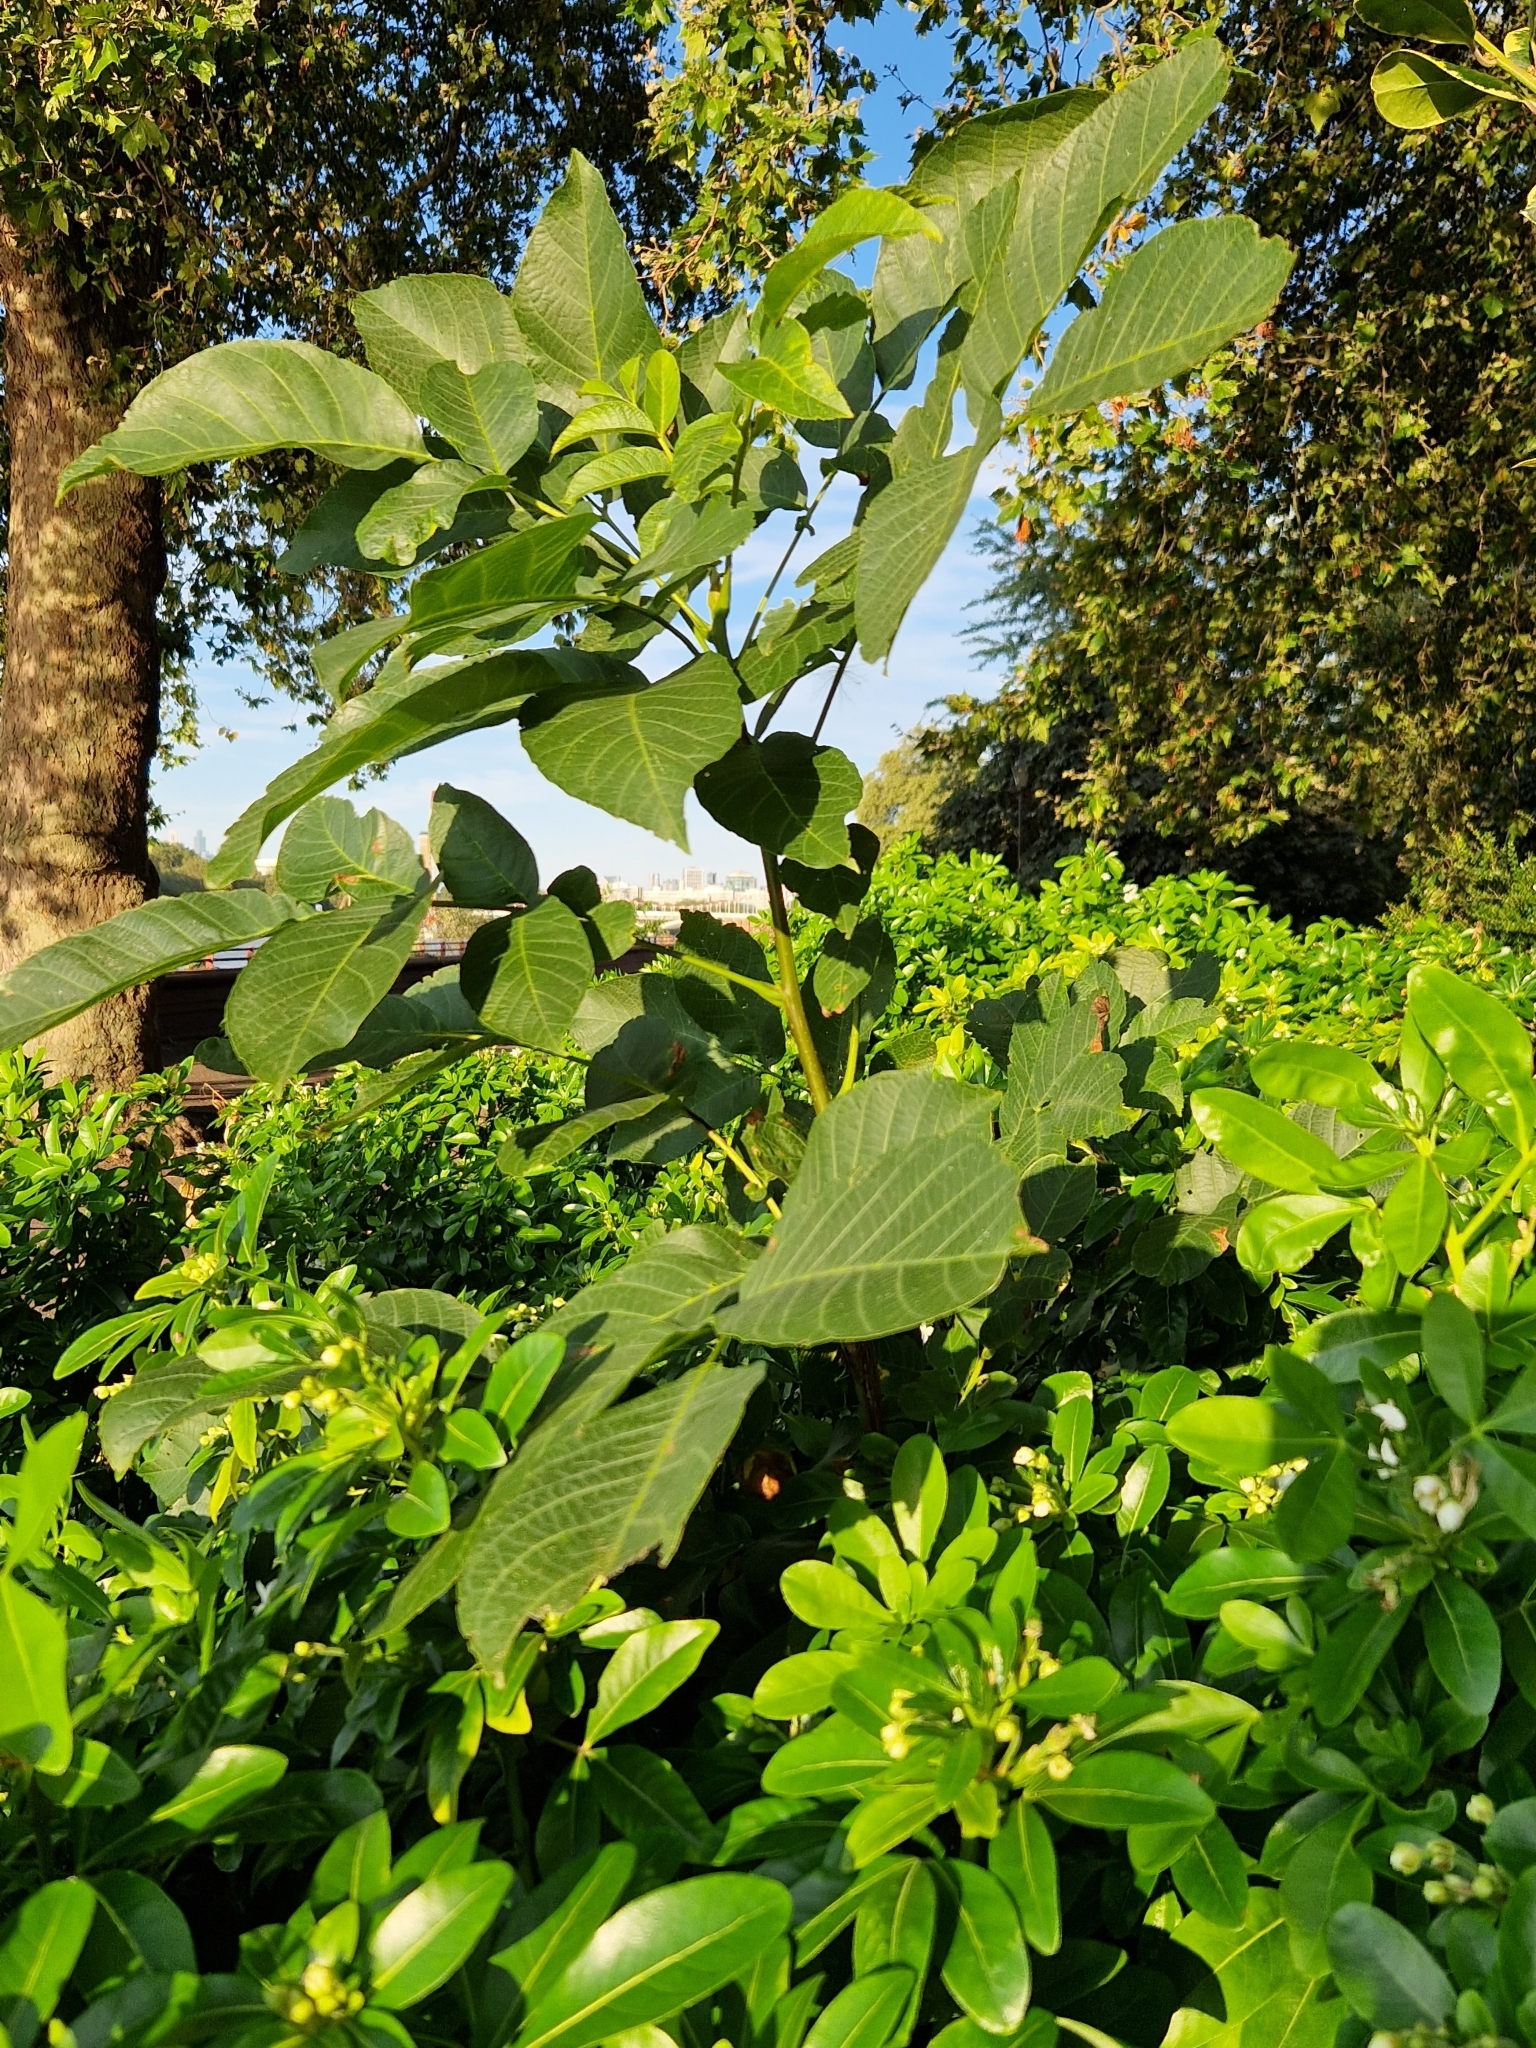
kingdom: Plantae
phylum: Tracheophyta
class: Magnoliopsida
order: Fagales
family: Juglandaceae
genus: Juglans
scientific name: Juglans regia
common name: Walnut
